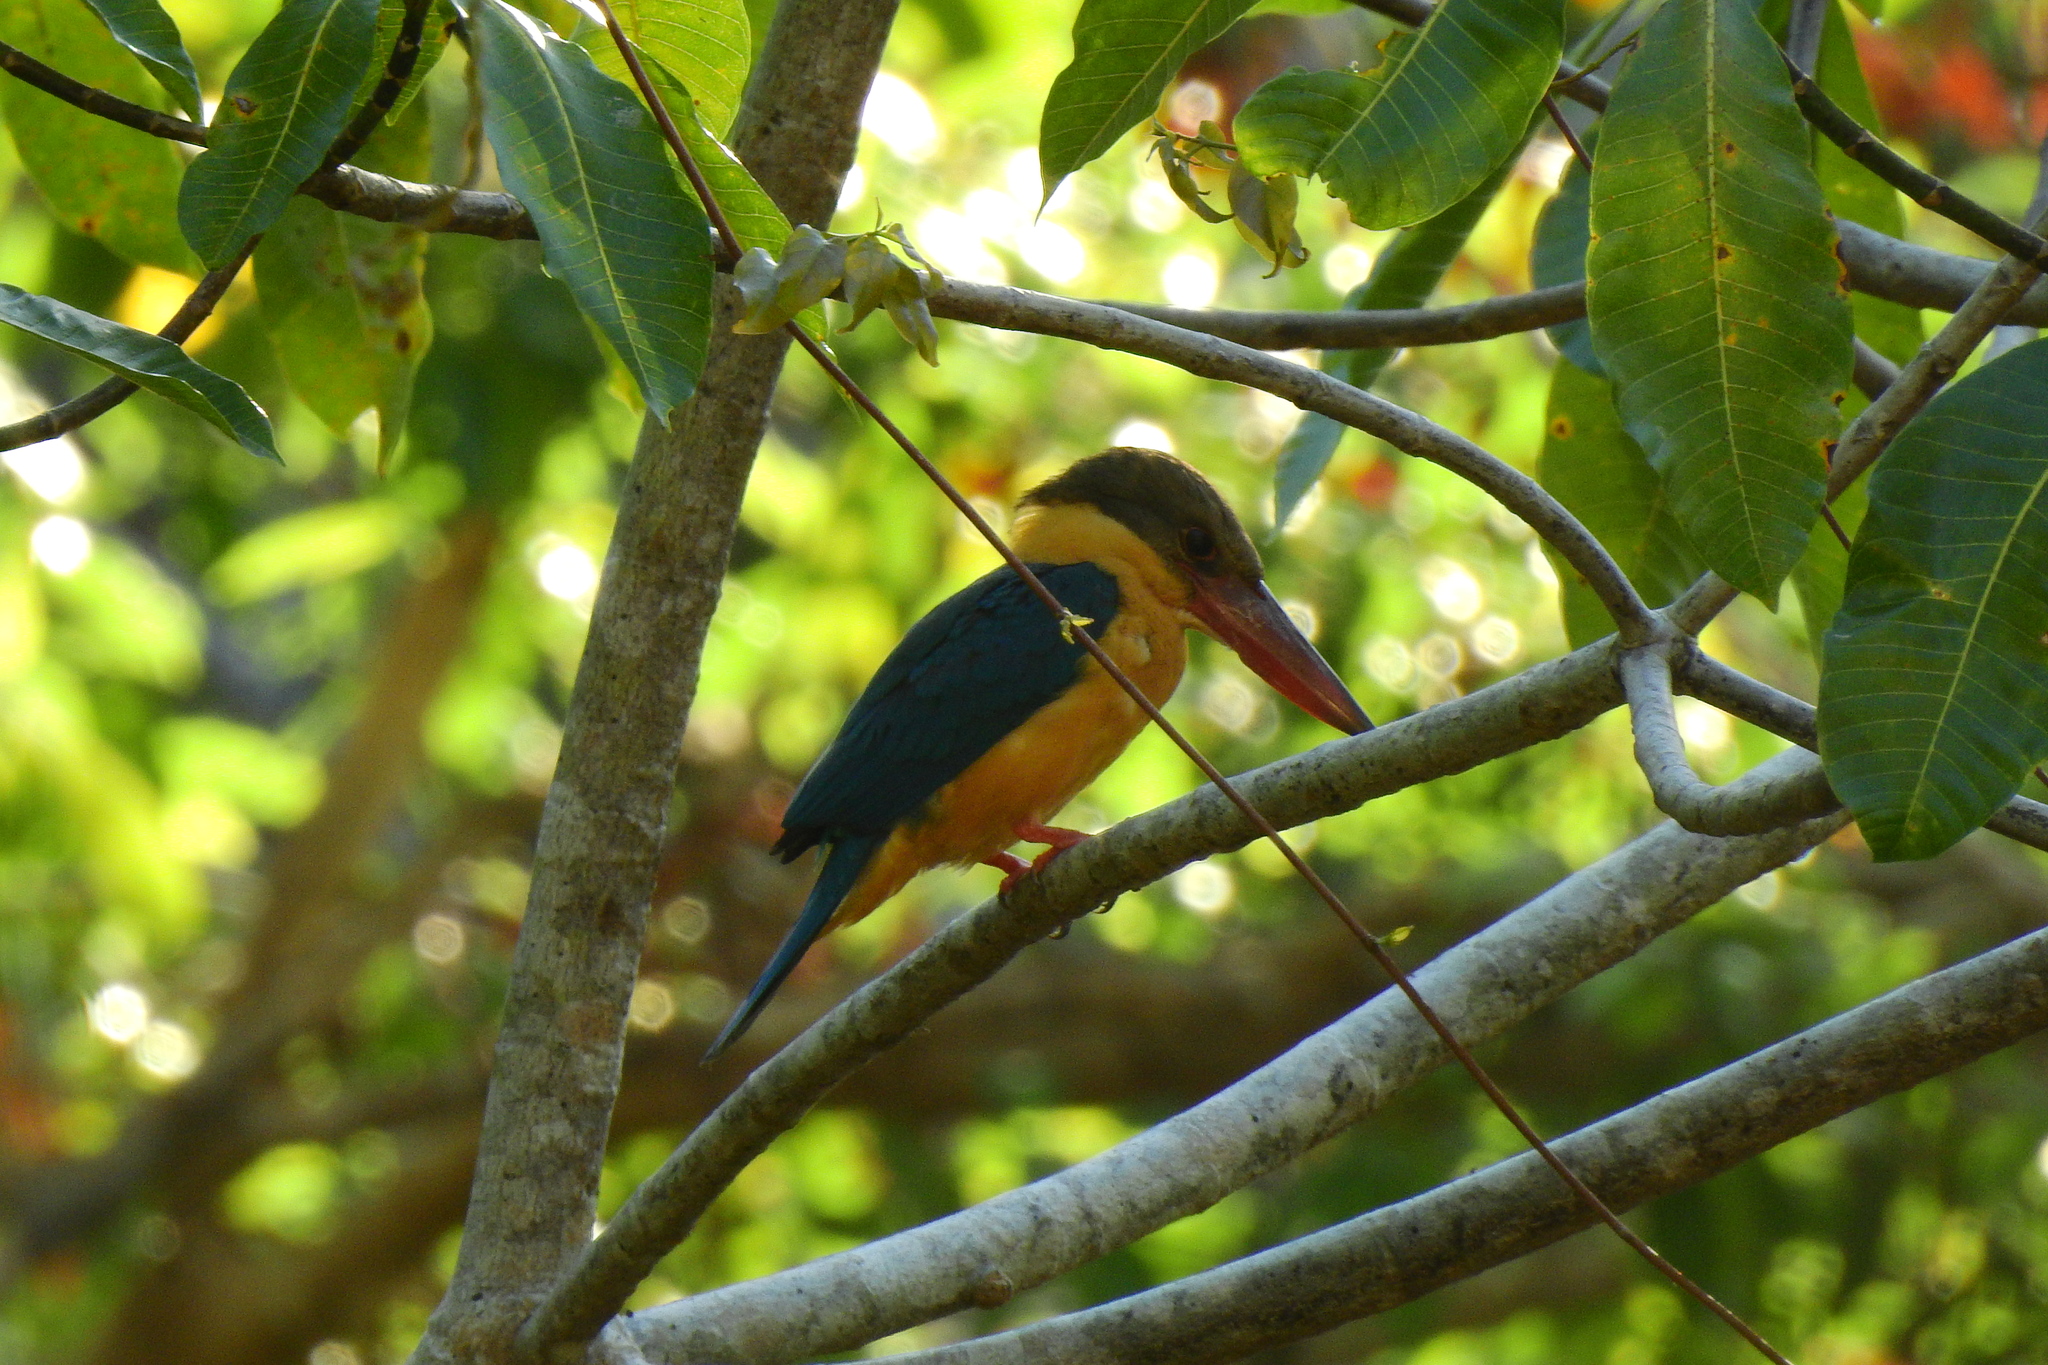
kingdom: Animalia
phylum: Chordata
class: Aves
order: Coraciiformes
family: Alcedinidae
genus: Pelargopsis
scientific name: Pelargopsis capensis
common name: Stork-billed kingfisher
